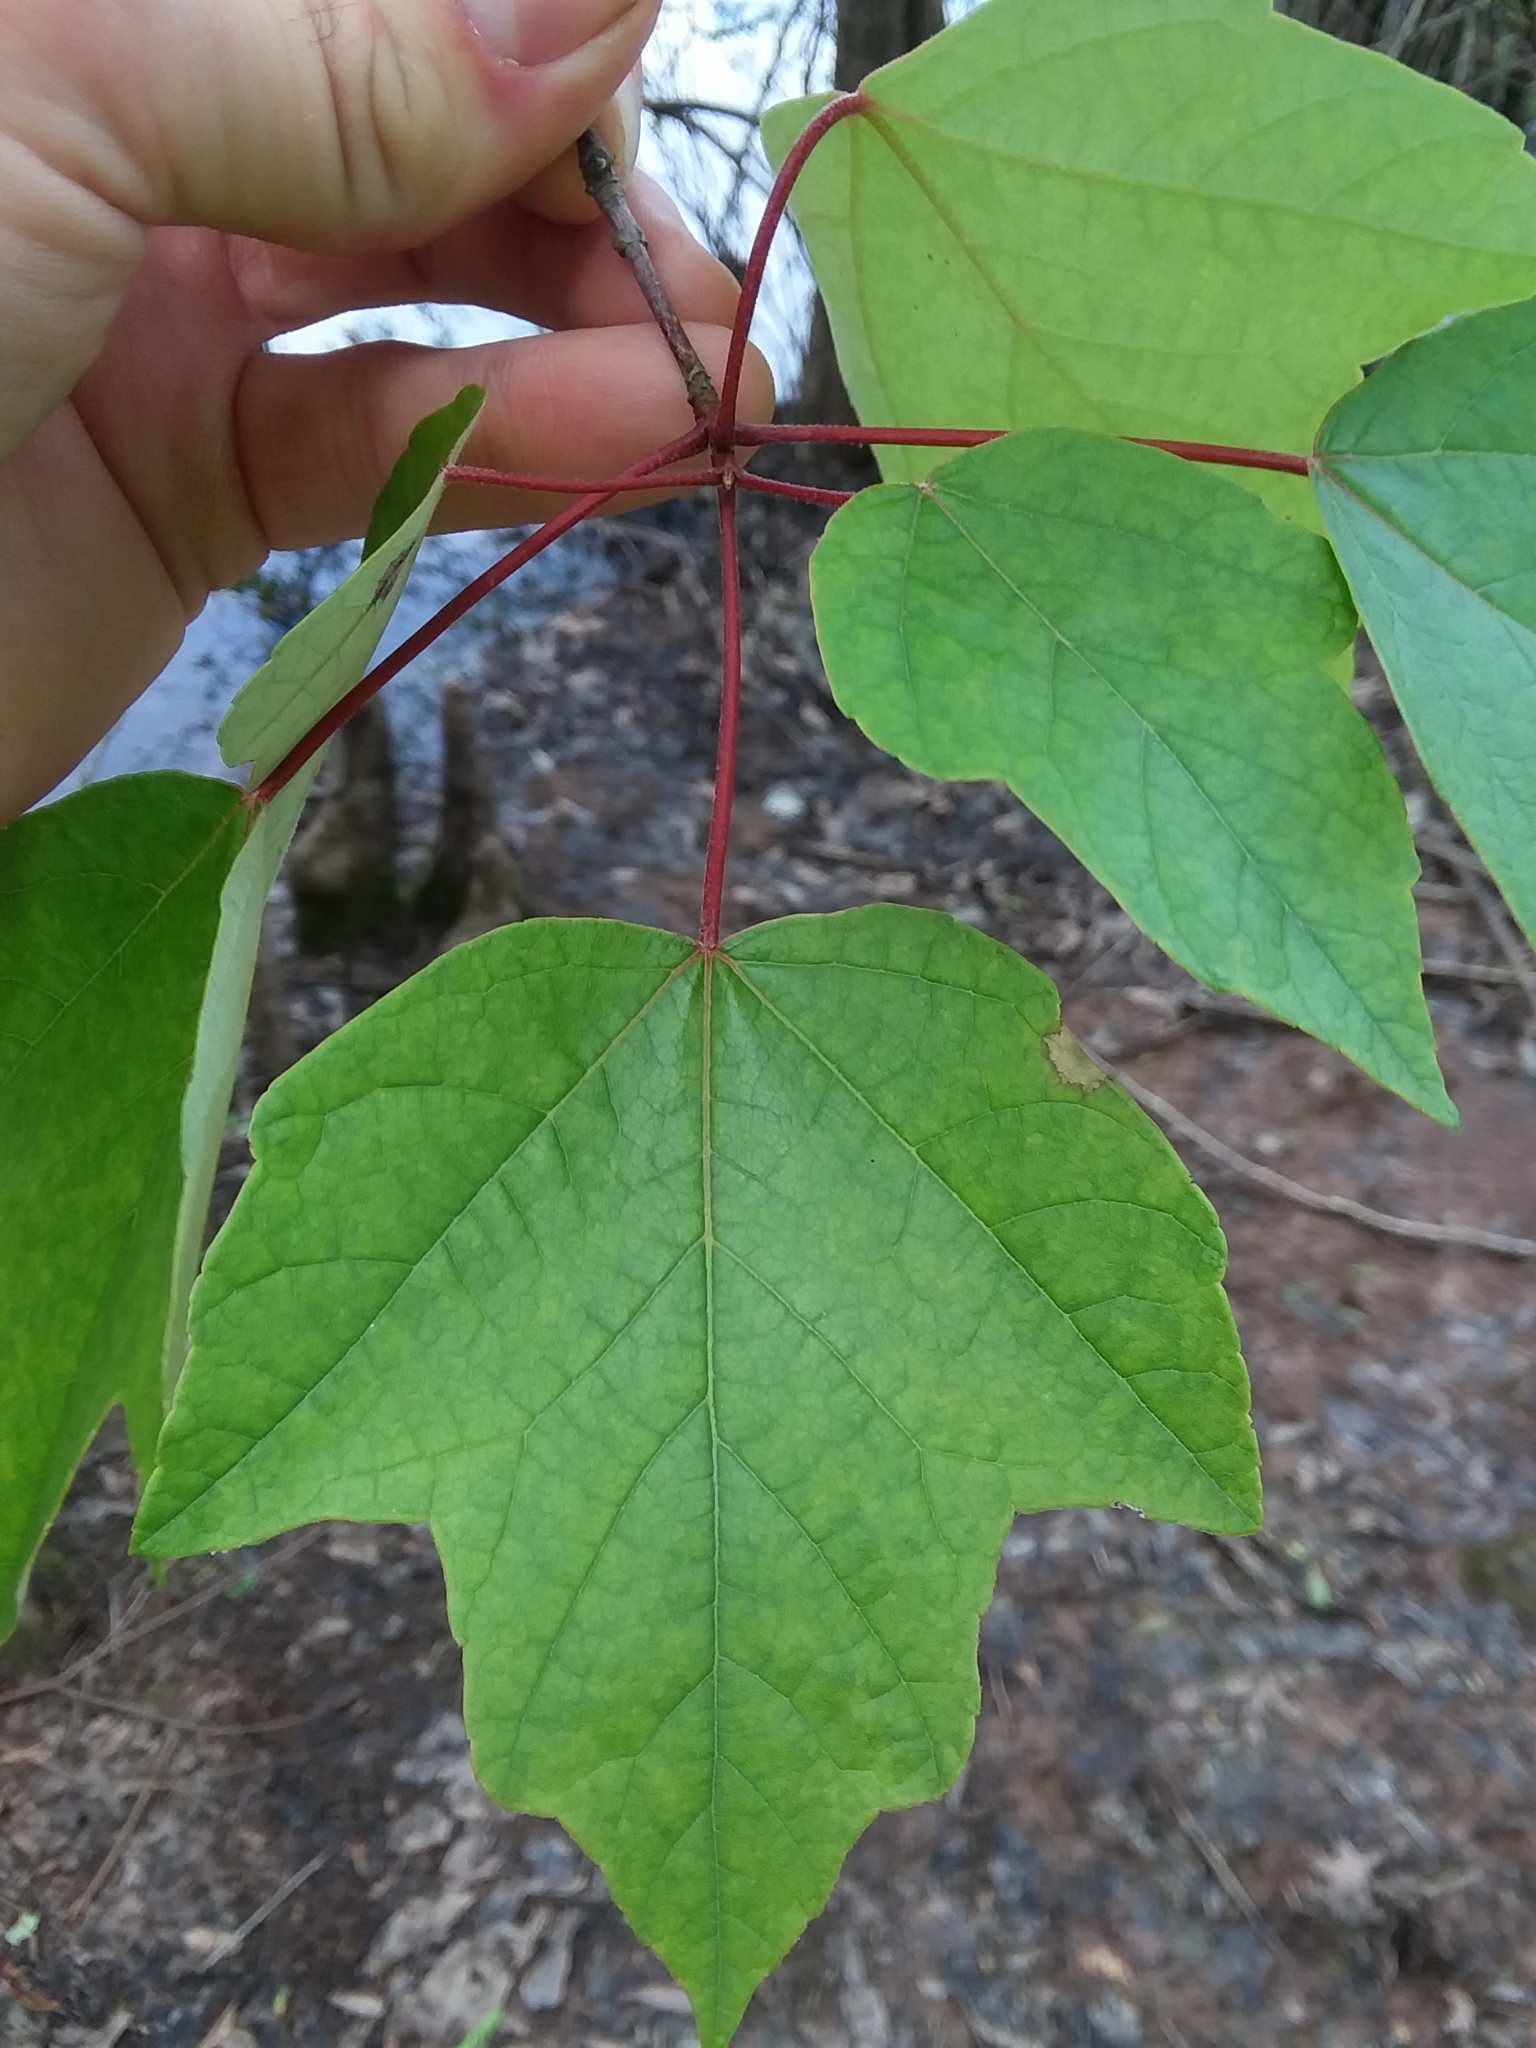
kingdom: Plantae
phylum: Tracheophyta
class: Magnoliopsida
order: Sapindales
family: Sapindaceae
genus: Acer
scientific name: Acer rubrum
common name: Red maple
